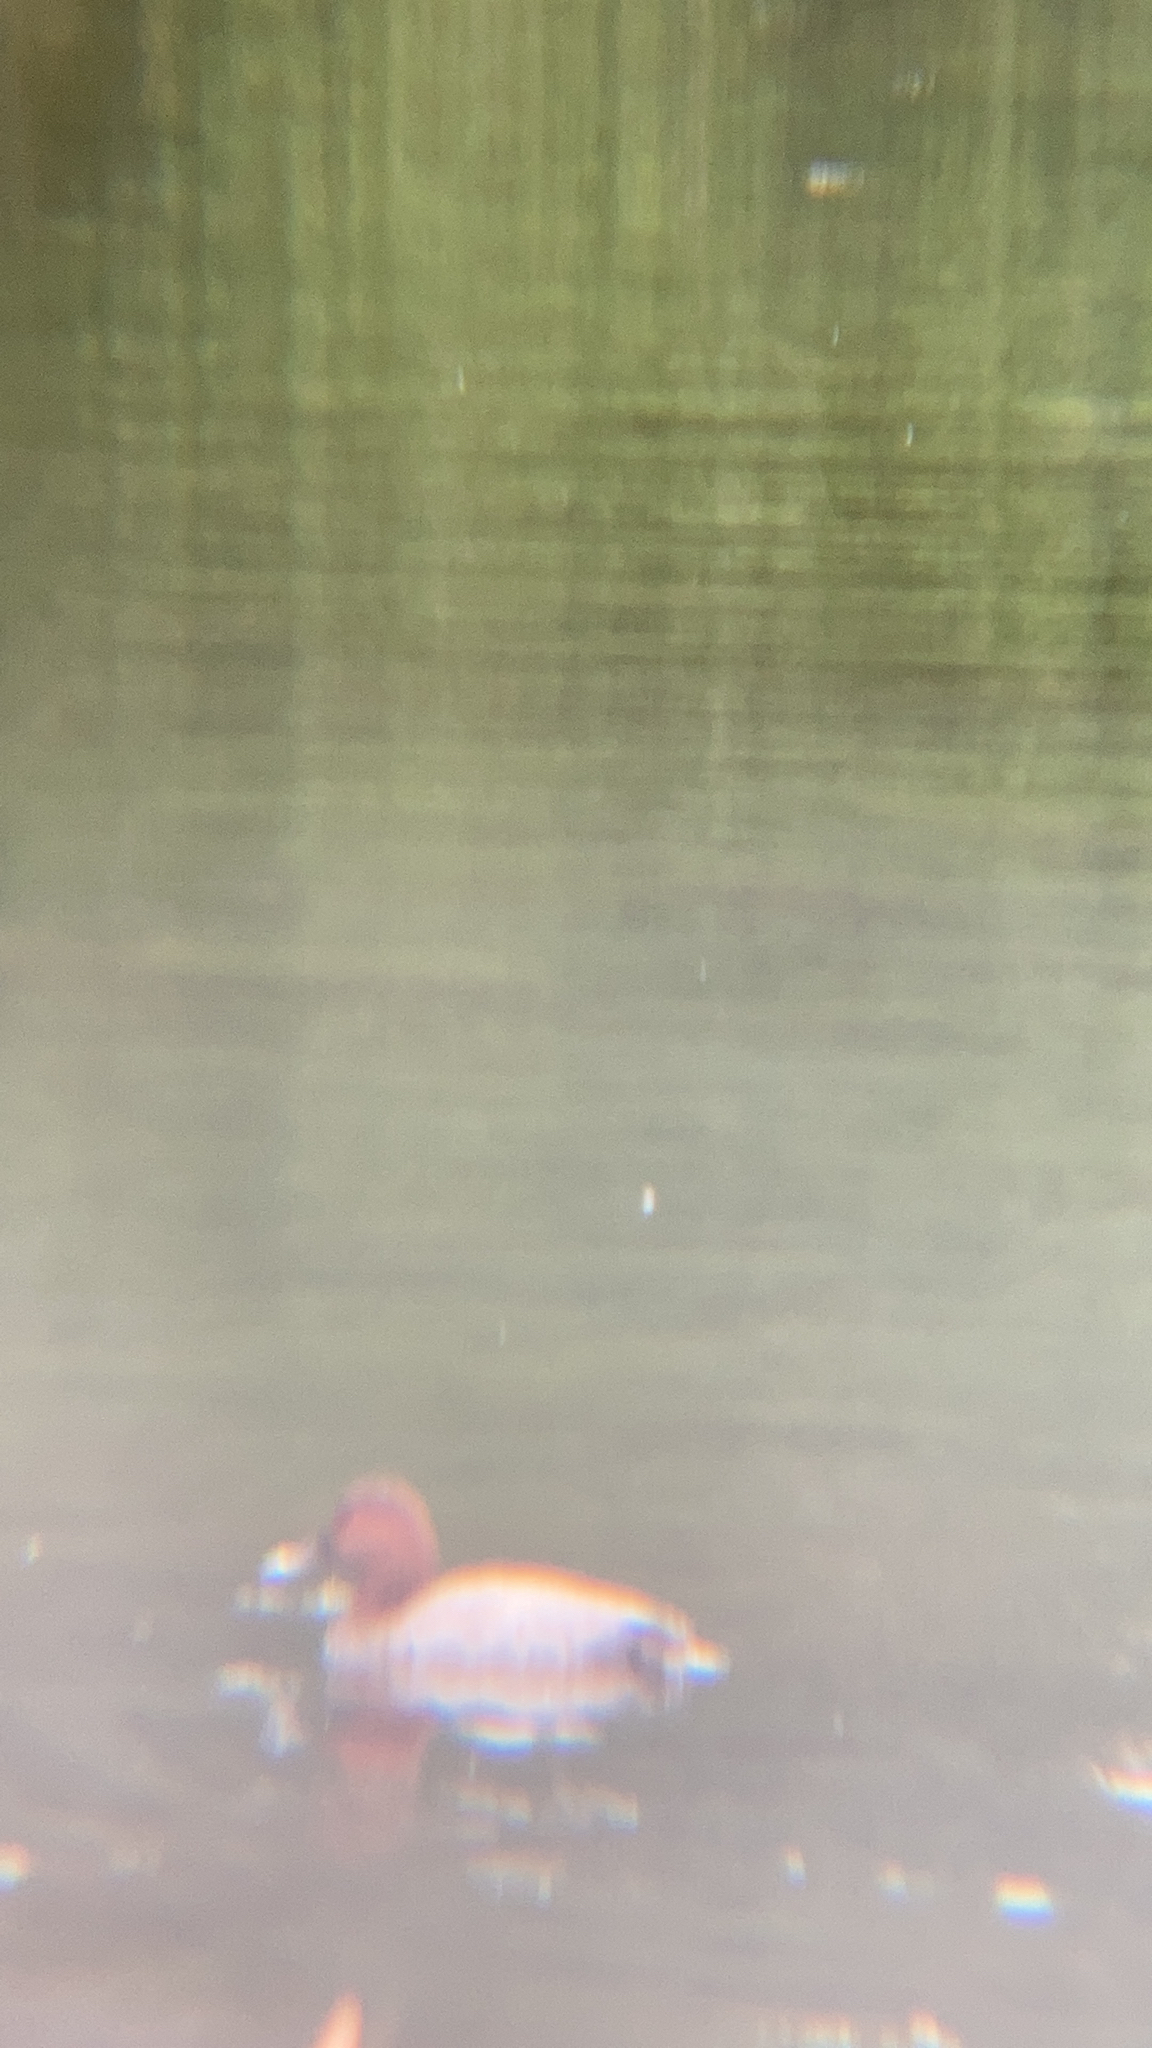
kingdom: Animalia
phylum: Chordata
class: Aves
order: Anseriformes
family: Anatidae
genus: Aythya
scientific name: Aythya ferina
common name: Common pochard
